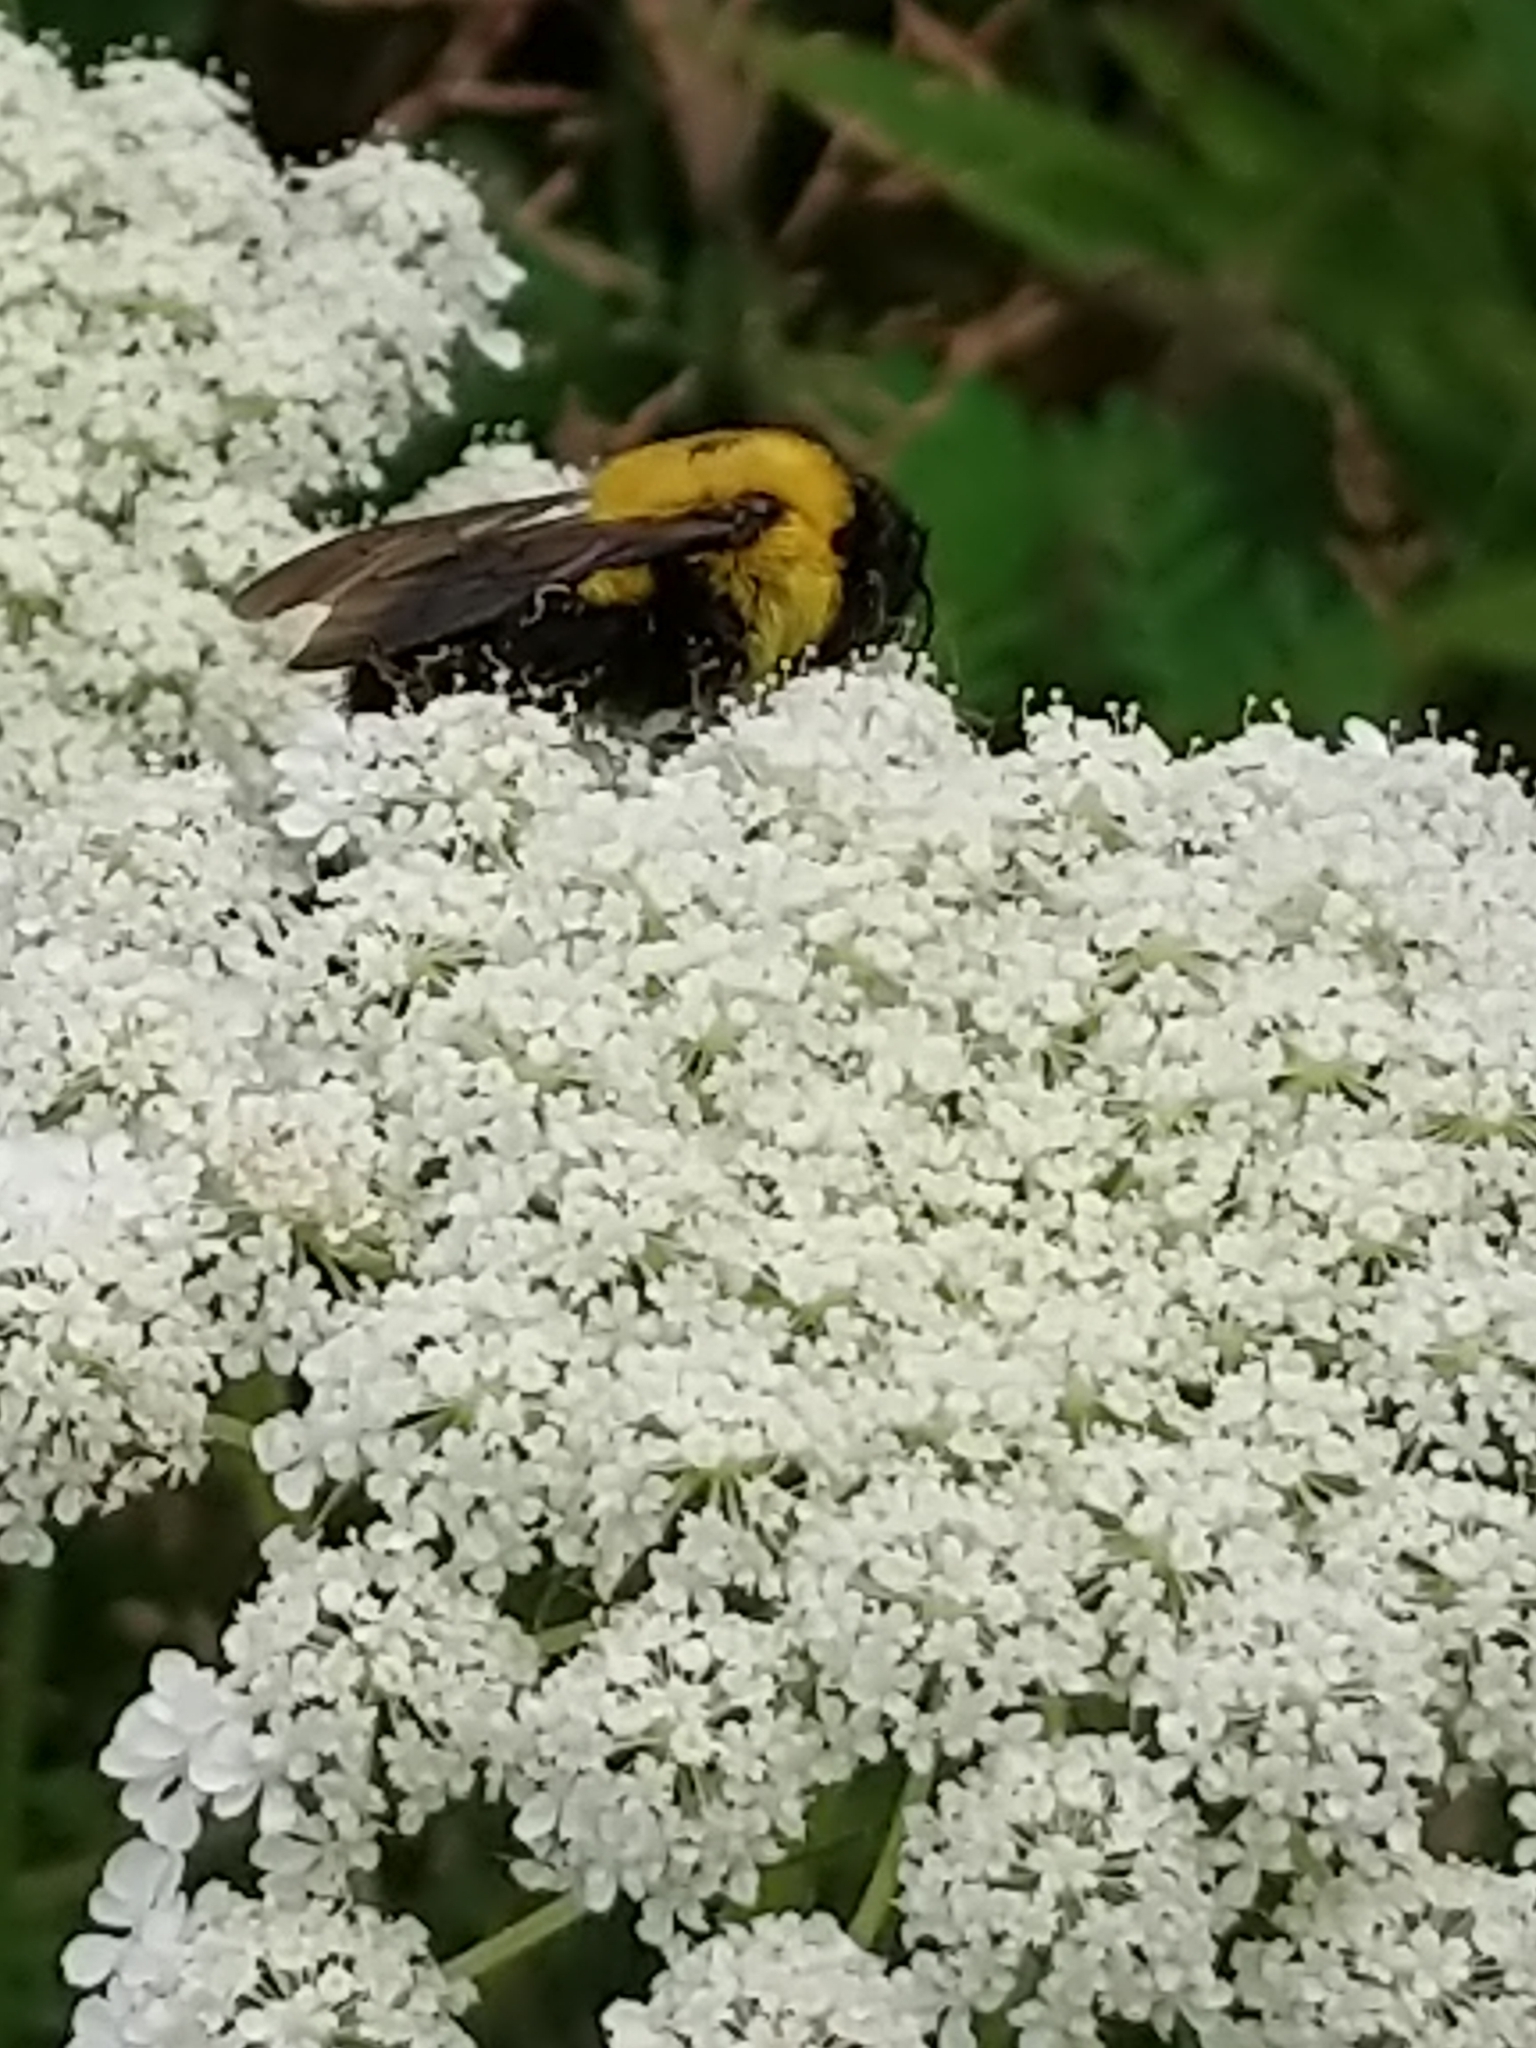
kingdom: Animalia
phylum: Arthropoda
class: Insecta
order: Hymenoptera
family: Apidae
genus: Bombus
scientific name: Bombus griseocollis
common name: Brown-belted bumble bee
